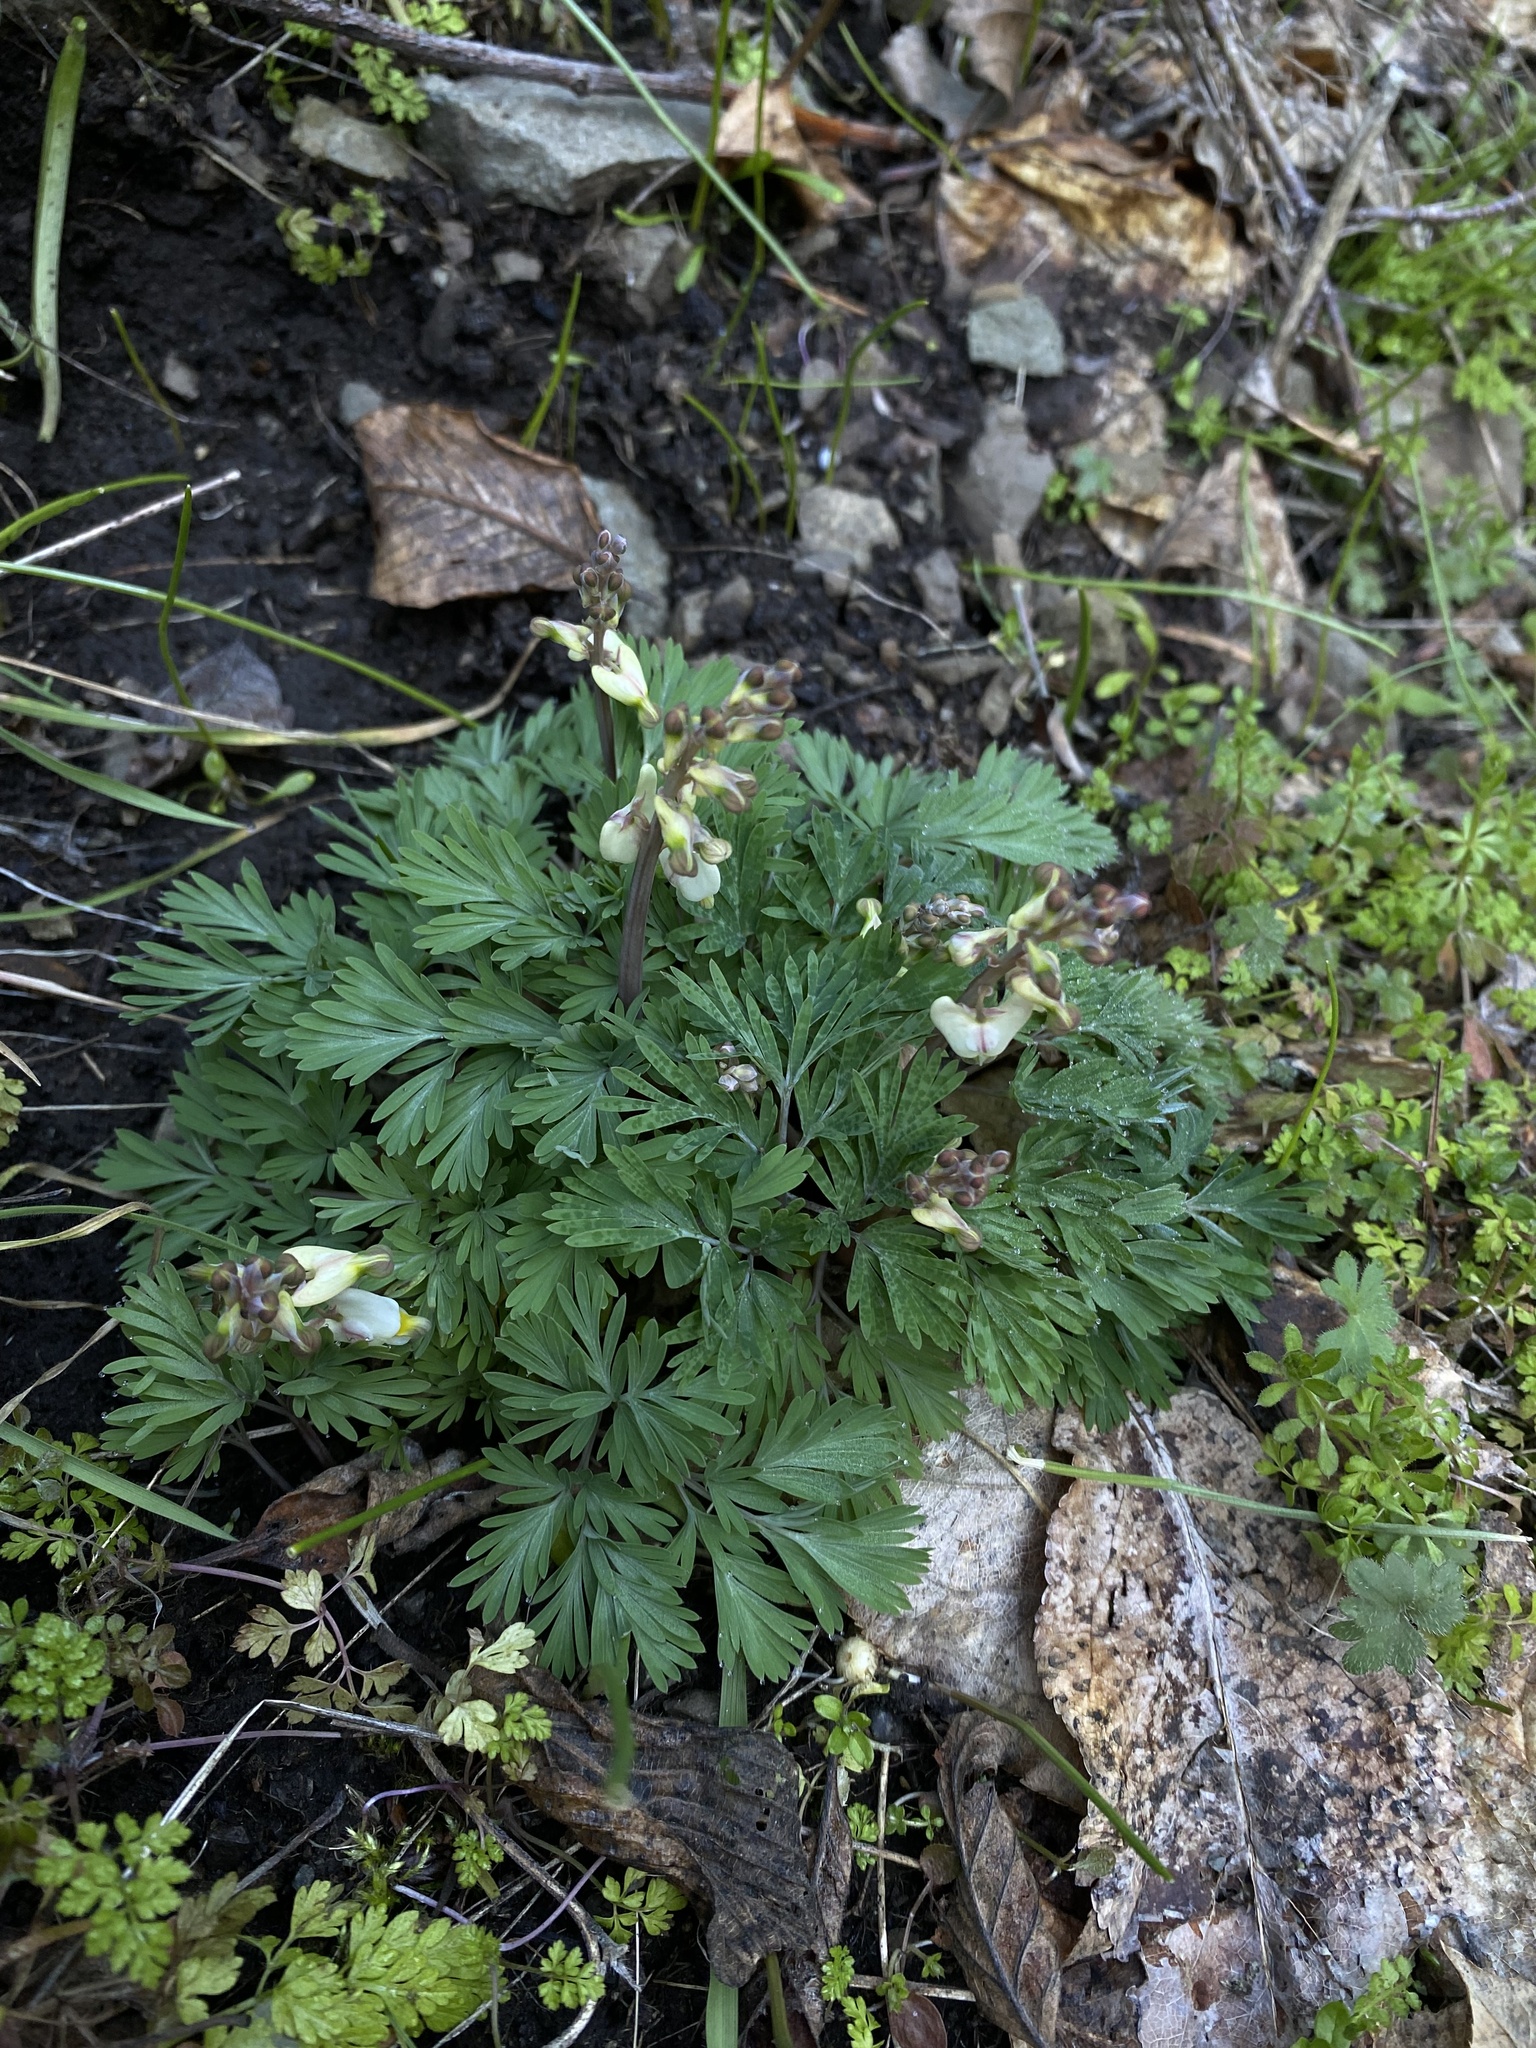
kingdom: Plantae
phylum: Tracheophyta
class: Magnoliopsida
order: Ranunculales
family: Papaveraceae
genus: Dicentra
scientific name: Dicentra cucullaria
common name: Dutchman's breeches
